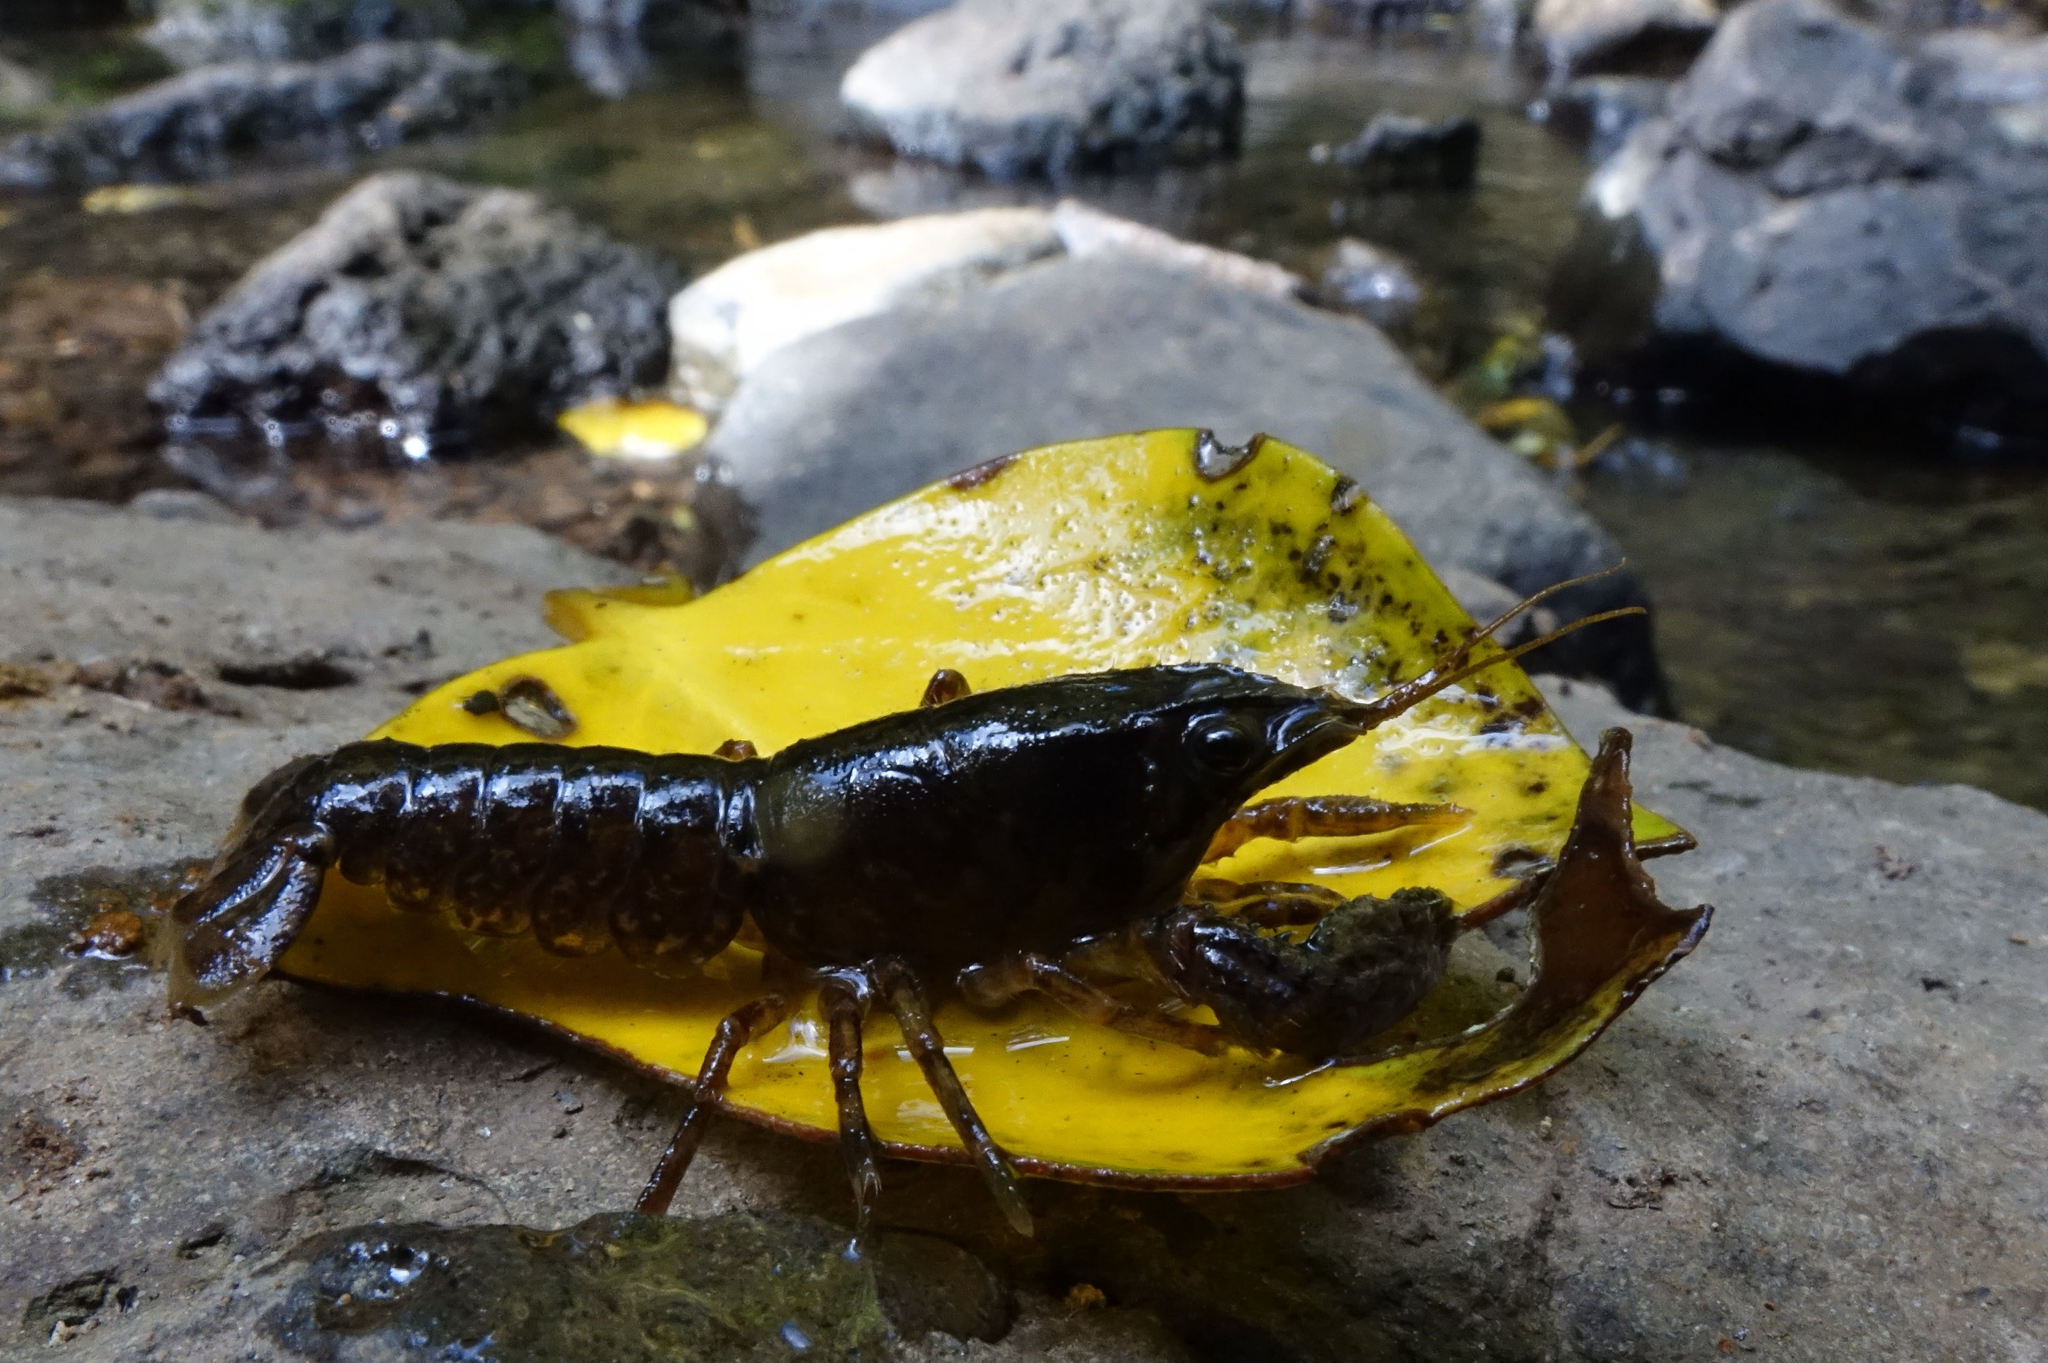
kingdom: Animalia
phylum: Arthropoda
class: Malacostraca
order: Decapoda
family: Parastacidae
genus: Paranephrops
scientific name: Paranephrops zealandicus
